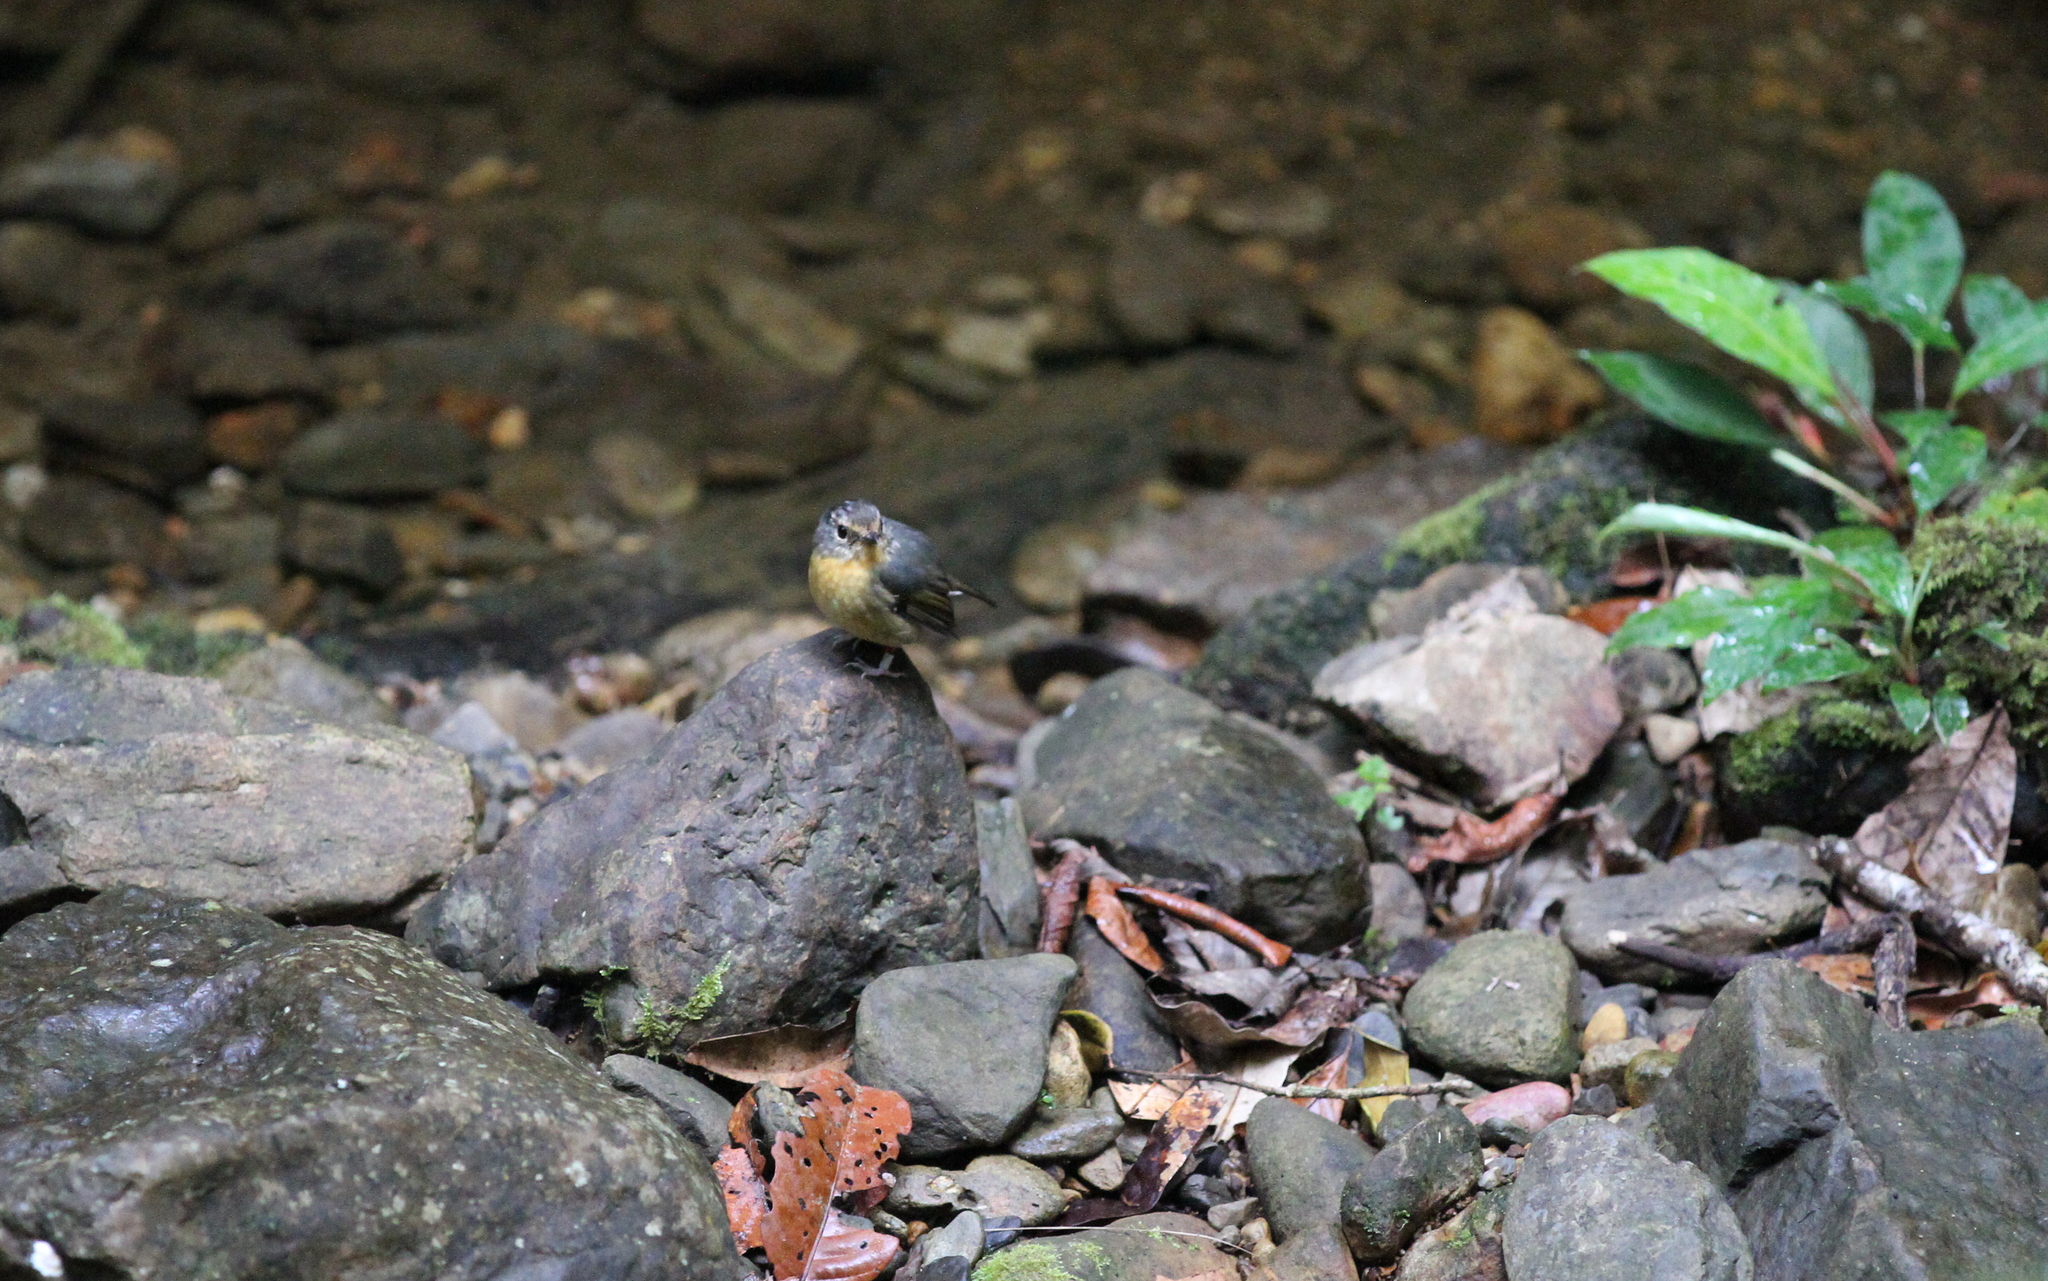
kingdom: Animalia
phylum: Chordata
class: Aves
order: Passeriformes
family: Muscicapidae
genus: Ficedula
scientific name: Ficedula hyperythra
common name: Snowy-browed flycatcher
